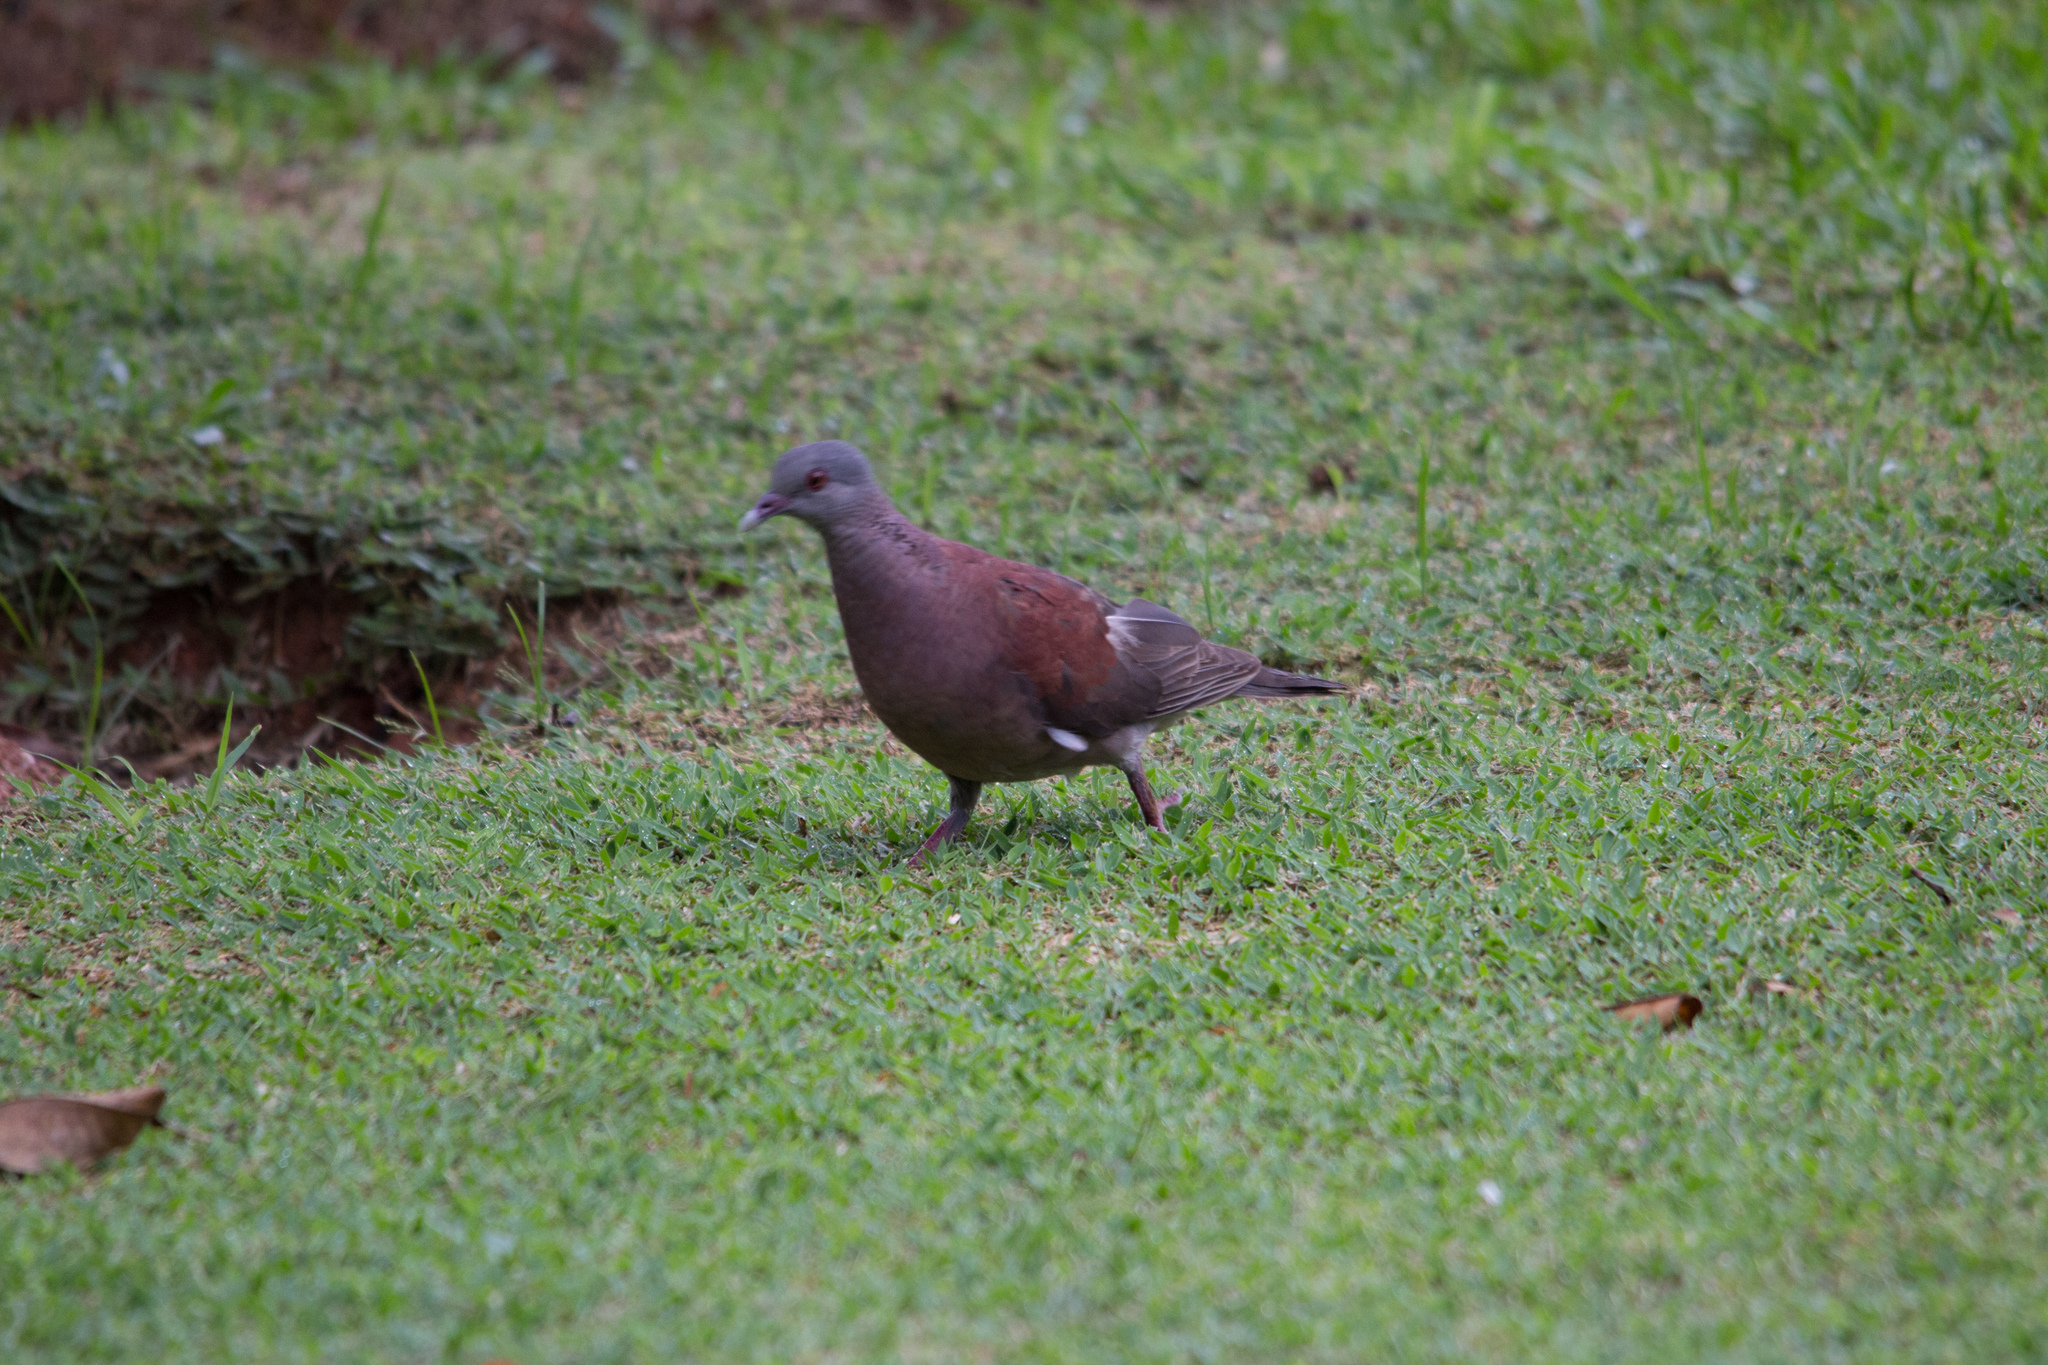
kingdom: Animalia
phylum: Chordata
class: Aves
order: Columbiformes
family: Columbidae
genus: Nesoenas
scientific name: Nesoenas picturatus
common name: Malagasy turtle dove
